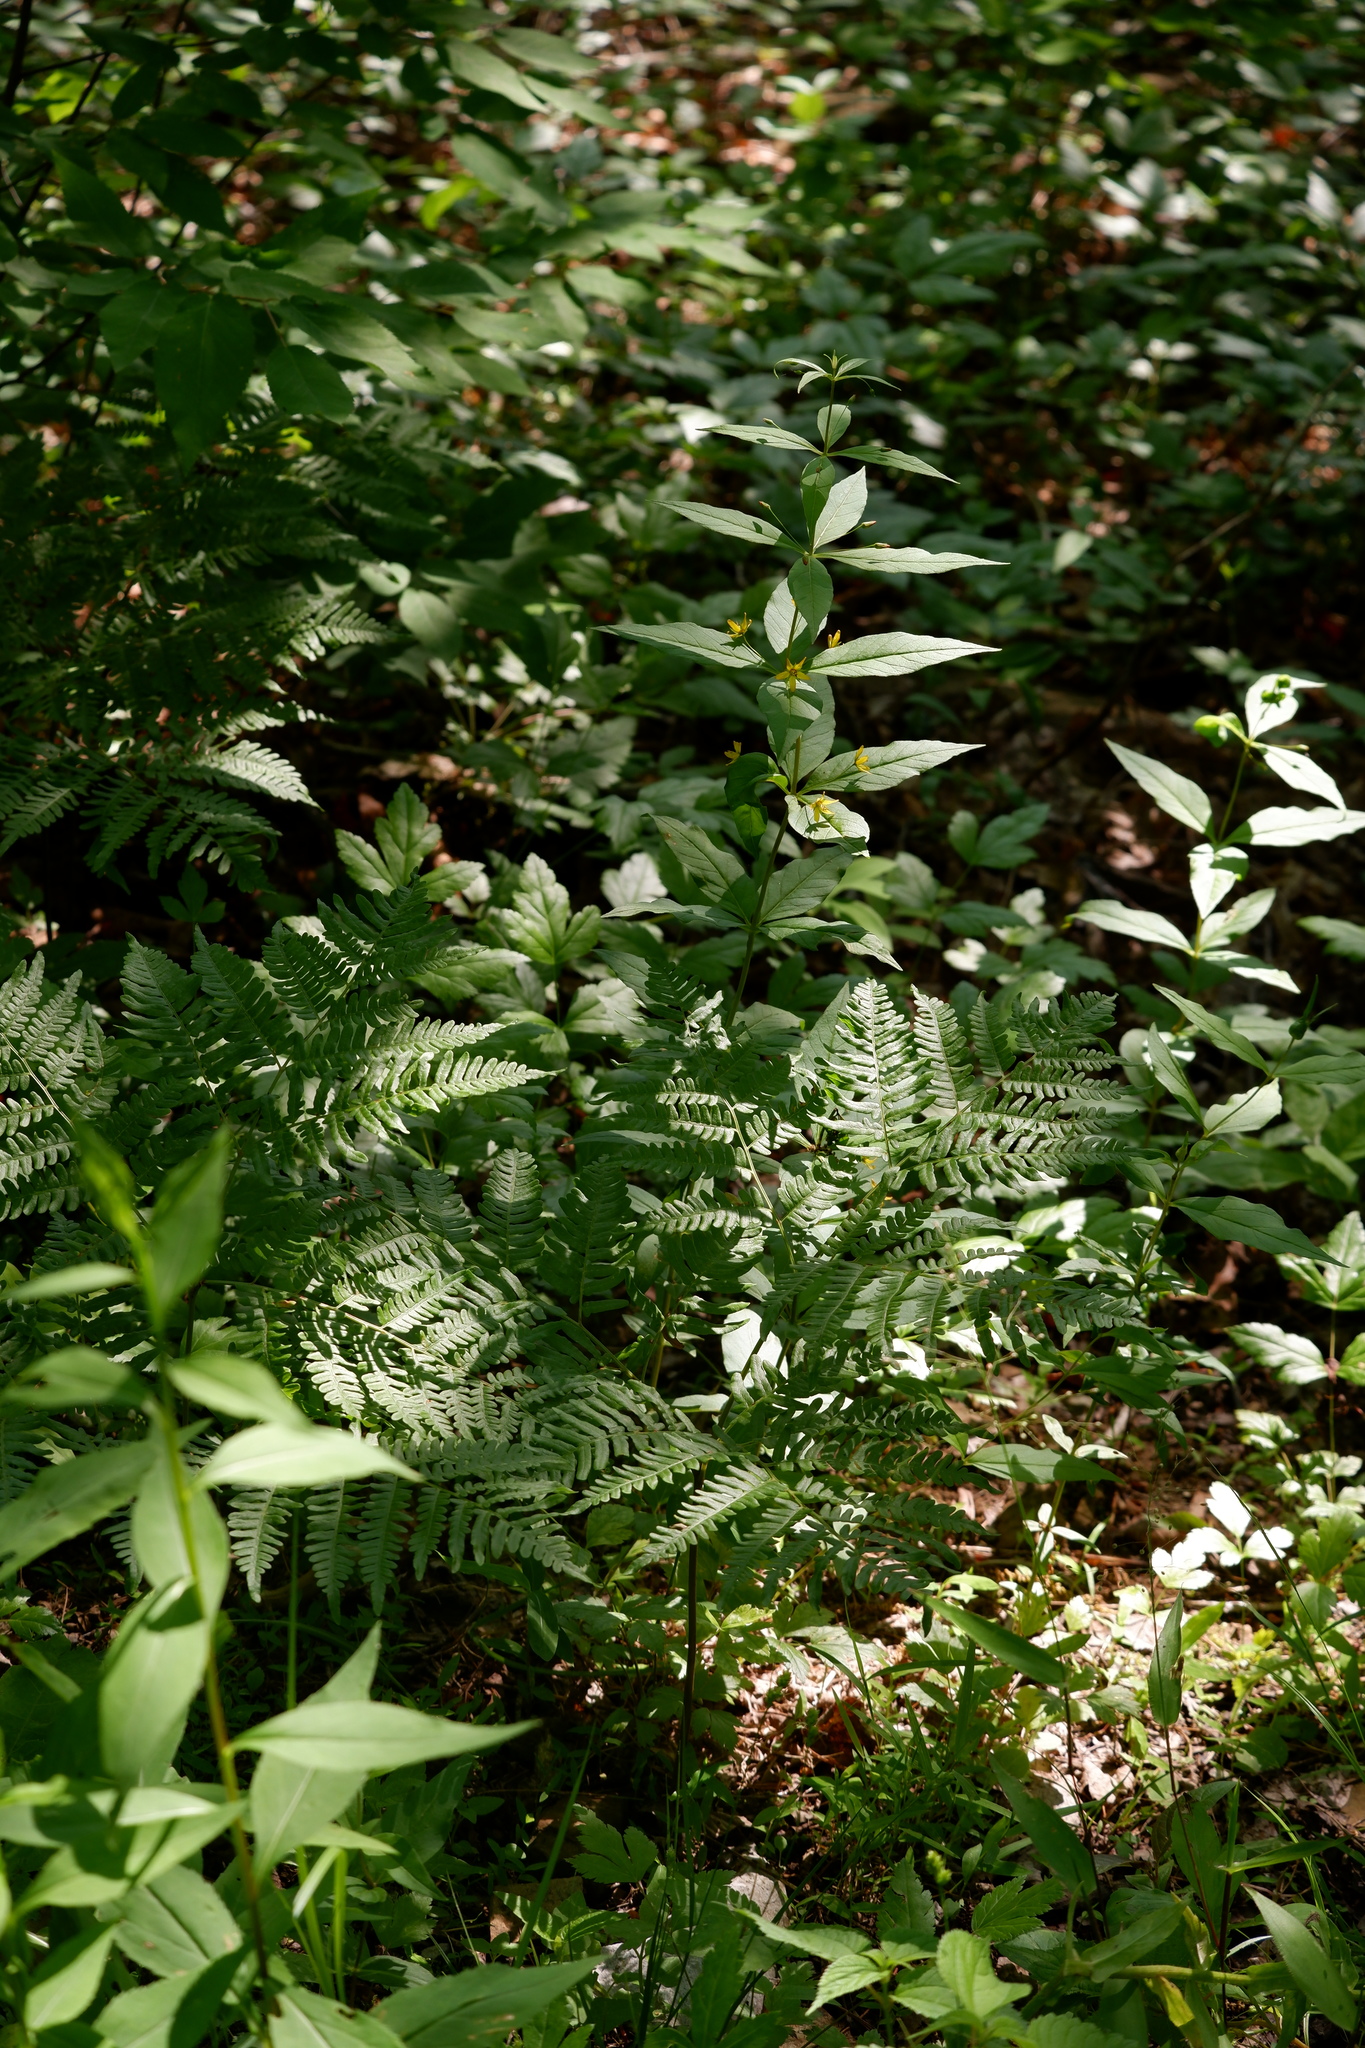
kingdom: Plantae
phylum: Tracheophyta
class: Polypodiopsida
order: Polypodiales
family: Dennstaedtiaceae
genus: Pteridium
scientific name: Pteridium aquilinum
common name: Bracken
